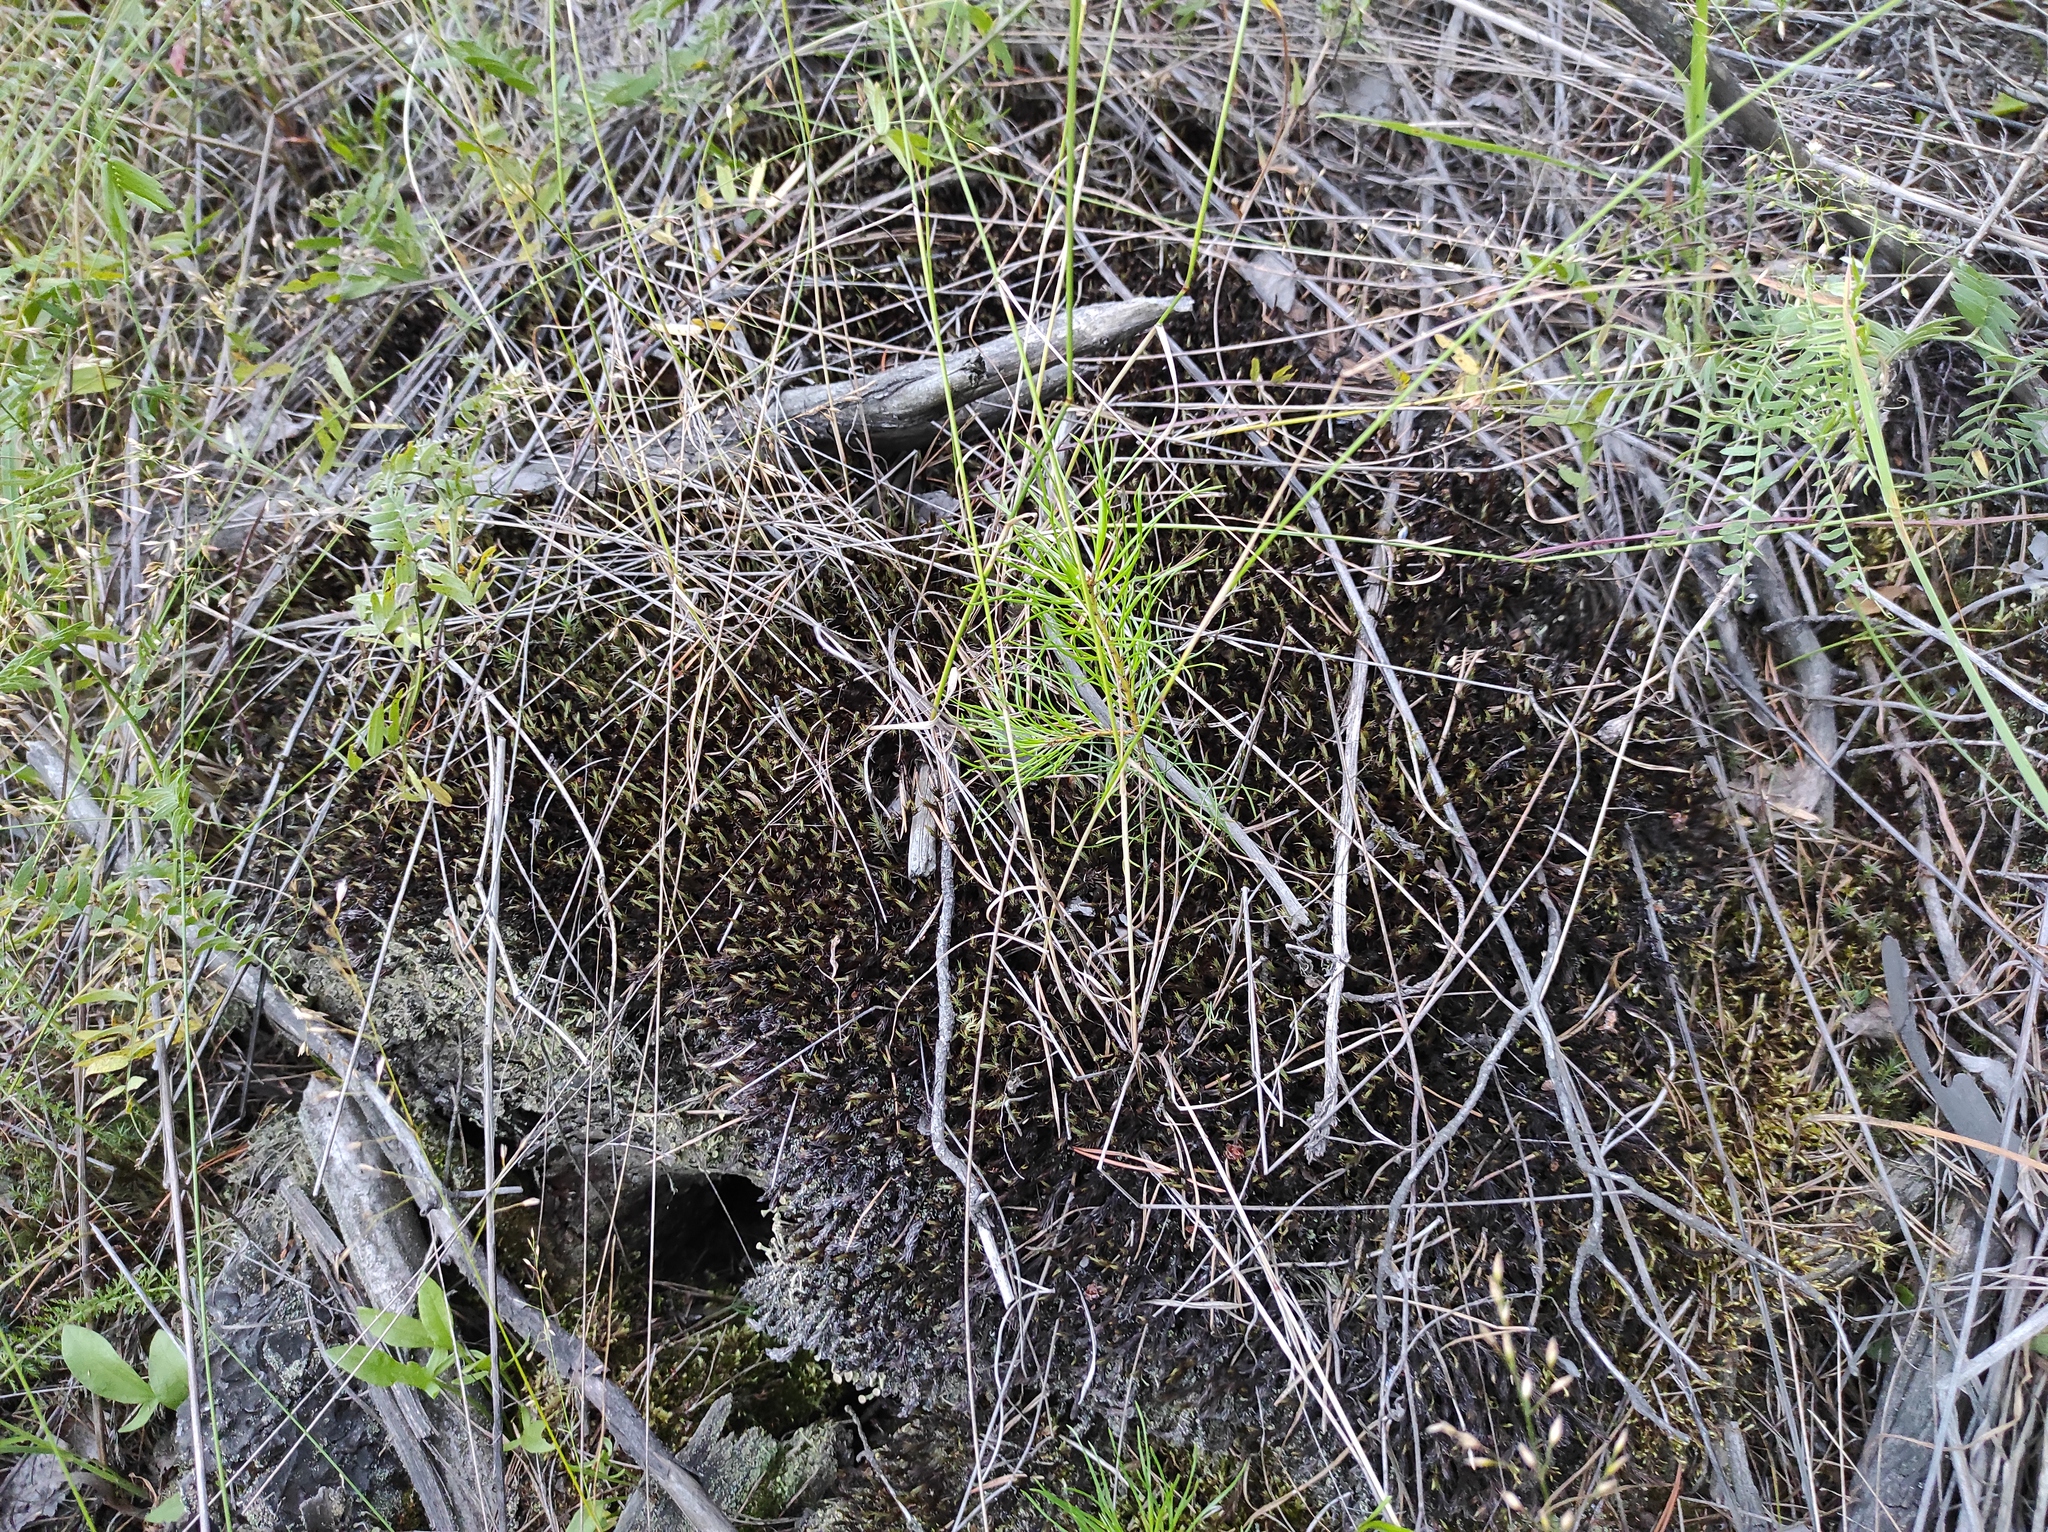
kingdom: Plantae
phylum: Tracheophyta
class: Pinopsida
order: Pinales
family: Pinaceae
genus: Pinus
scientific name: Pinus sylvestris
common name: Scots pine
